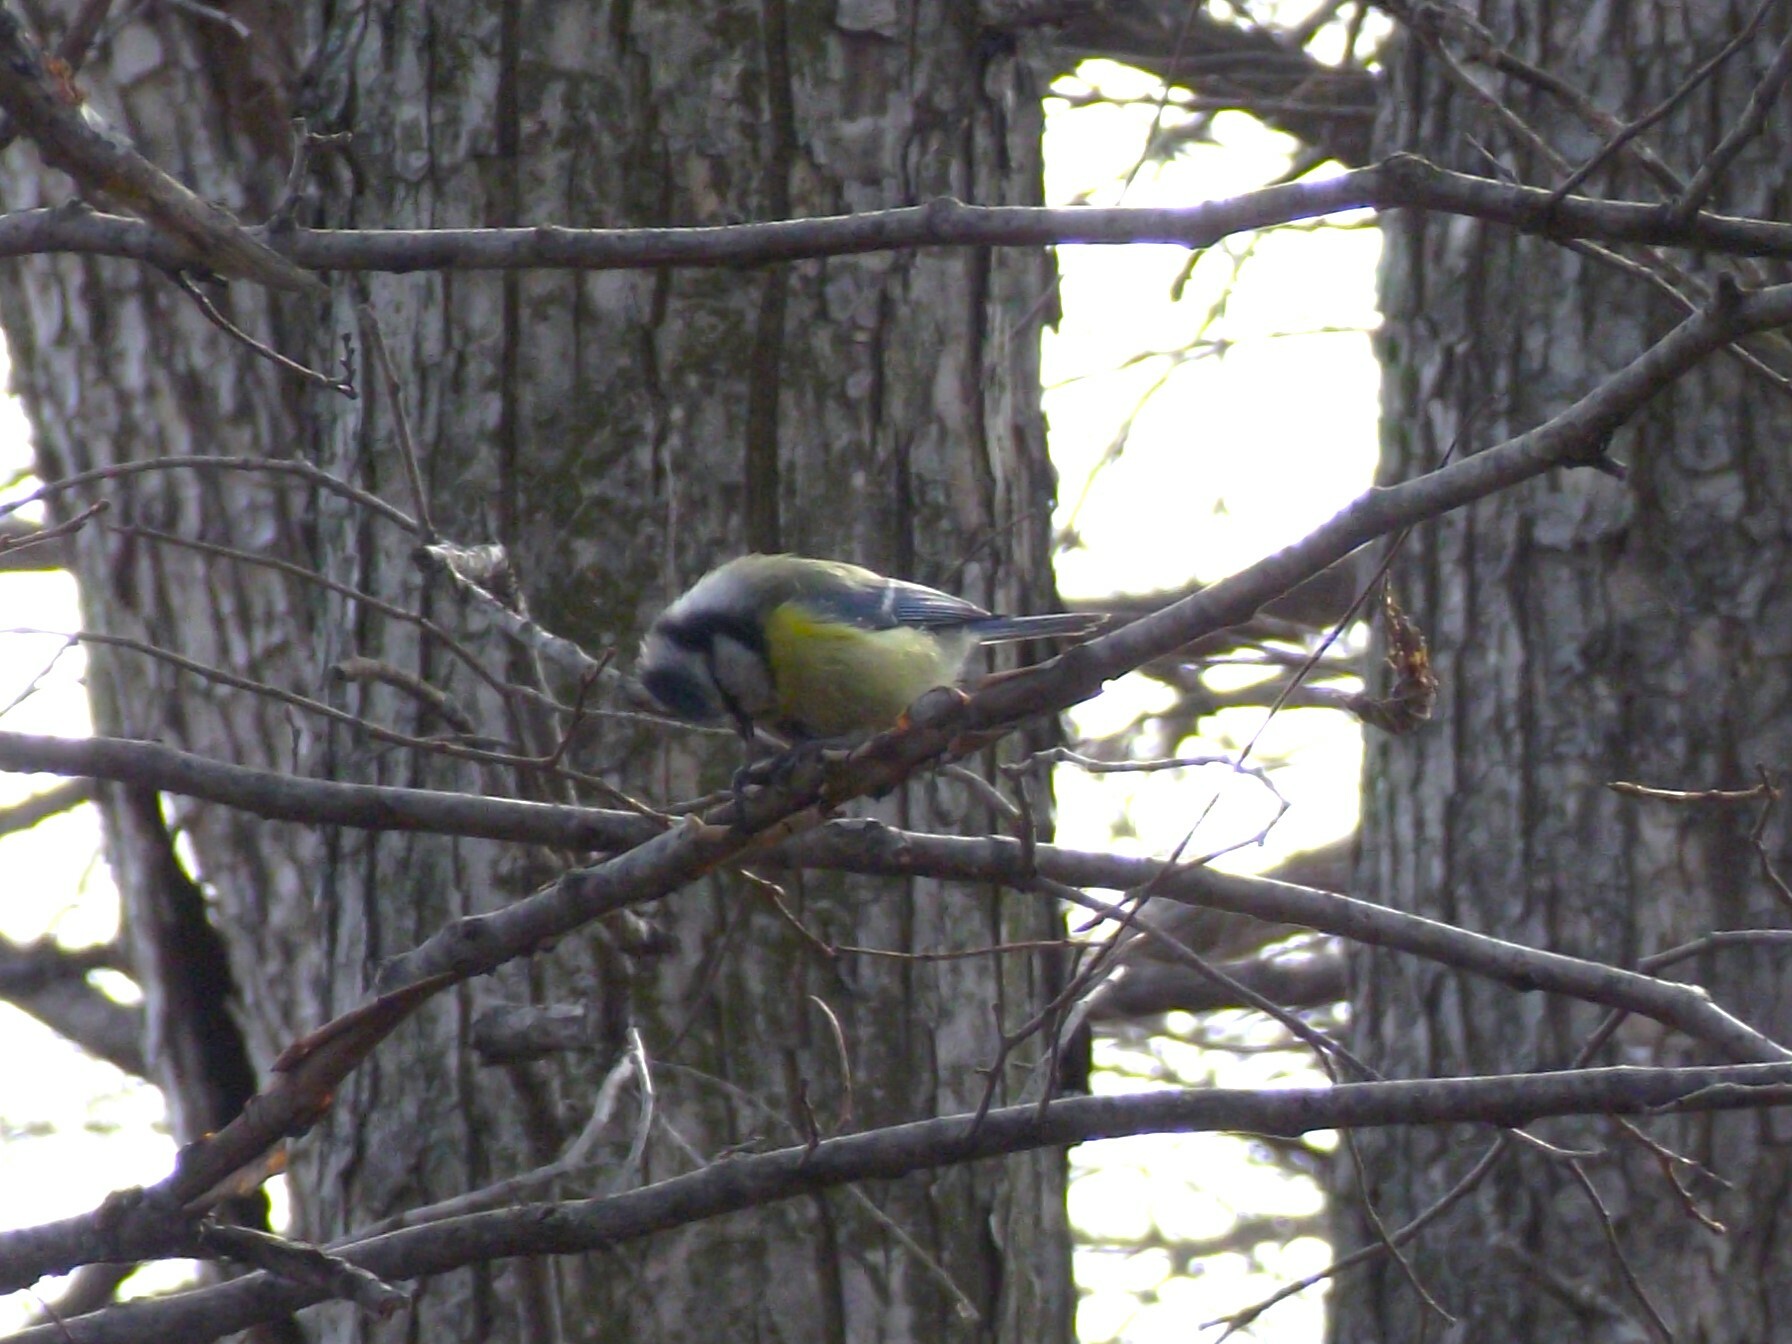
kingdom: Animalia
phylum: Chordata
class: Aves
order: Passeriformes
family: Paridae
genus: Cyanistes
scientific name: Cyanistes caeruleus
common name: Eurasian blue tit
